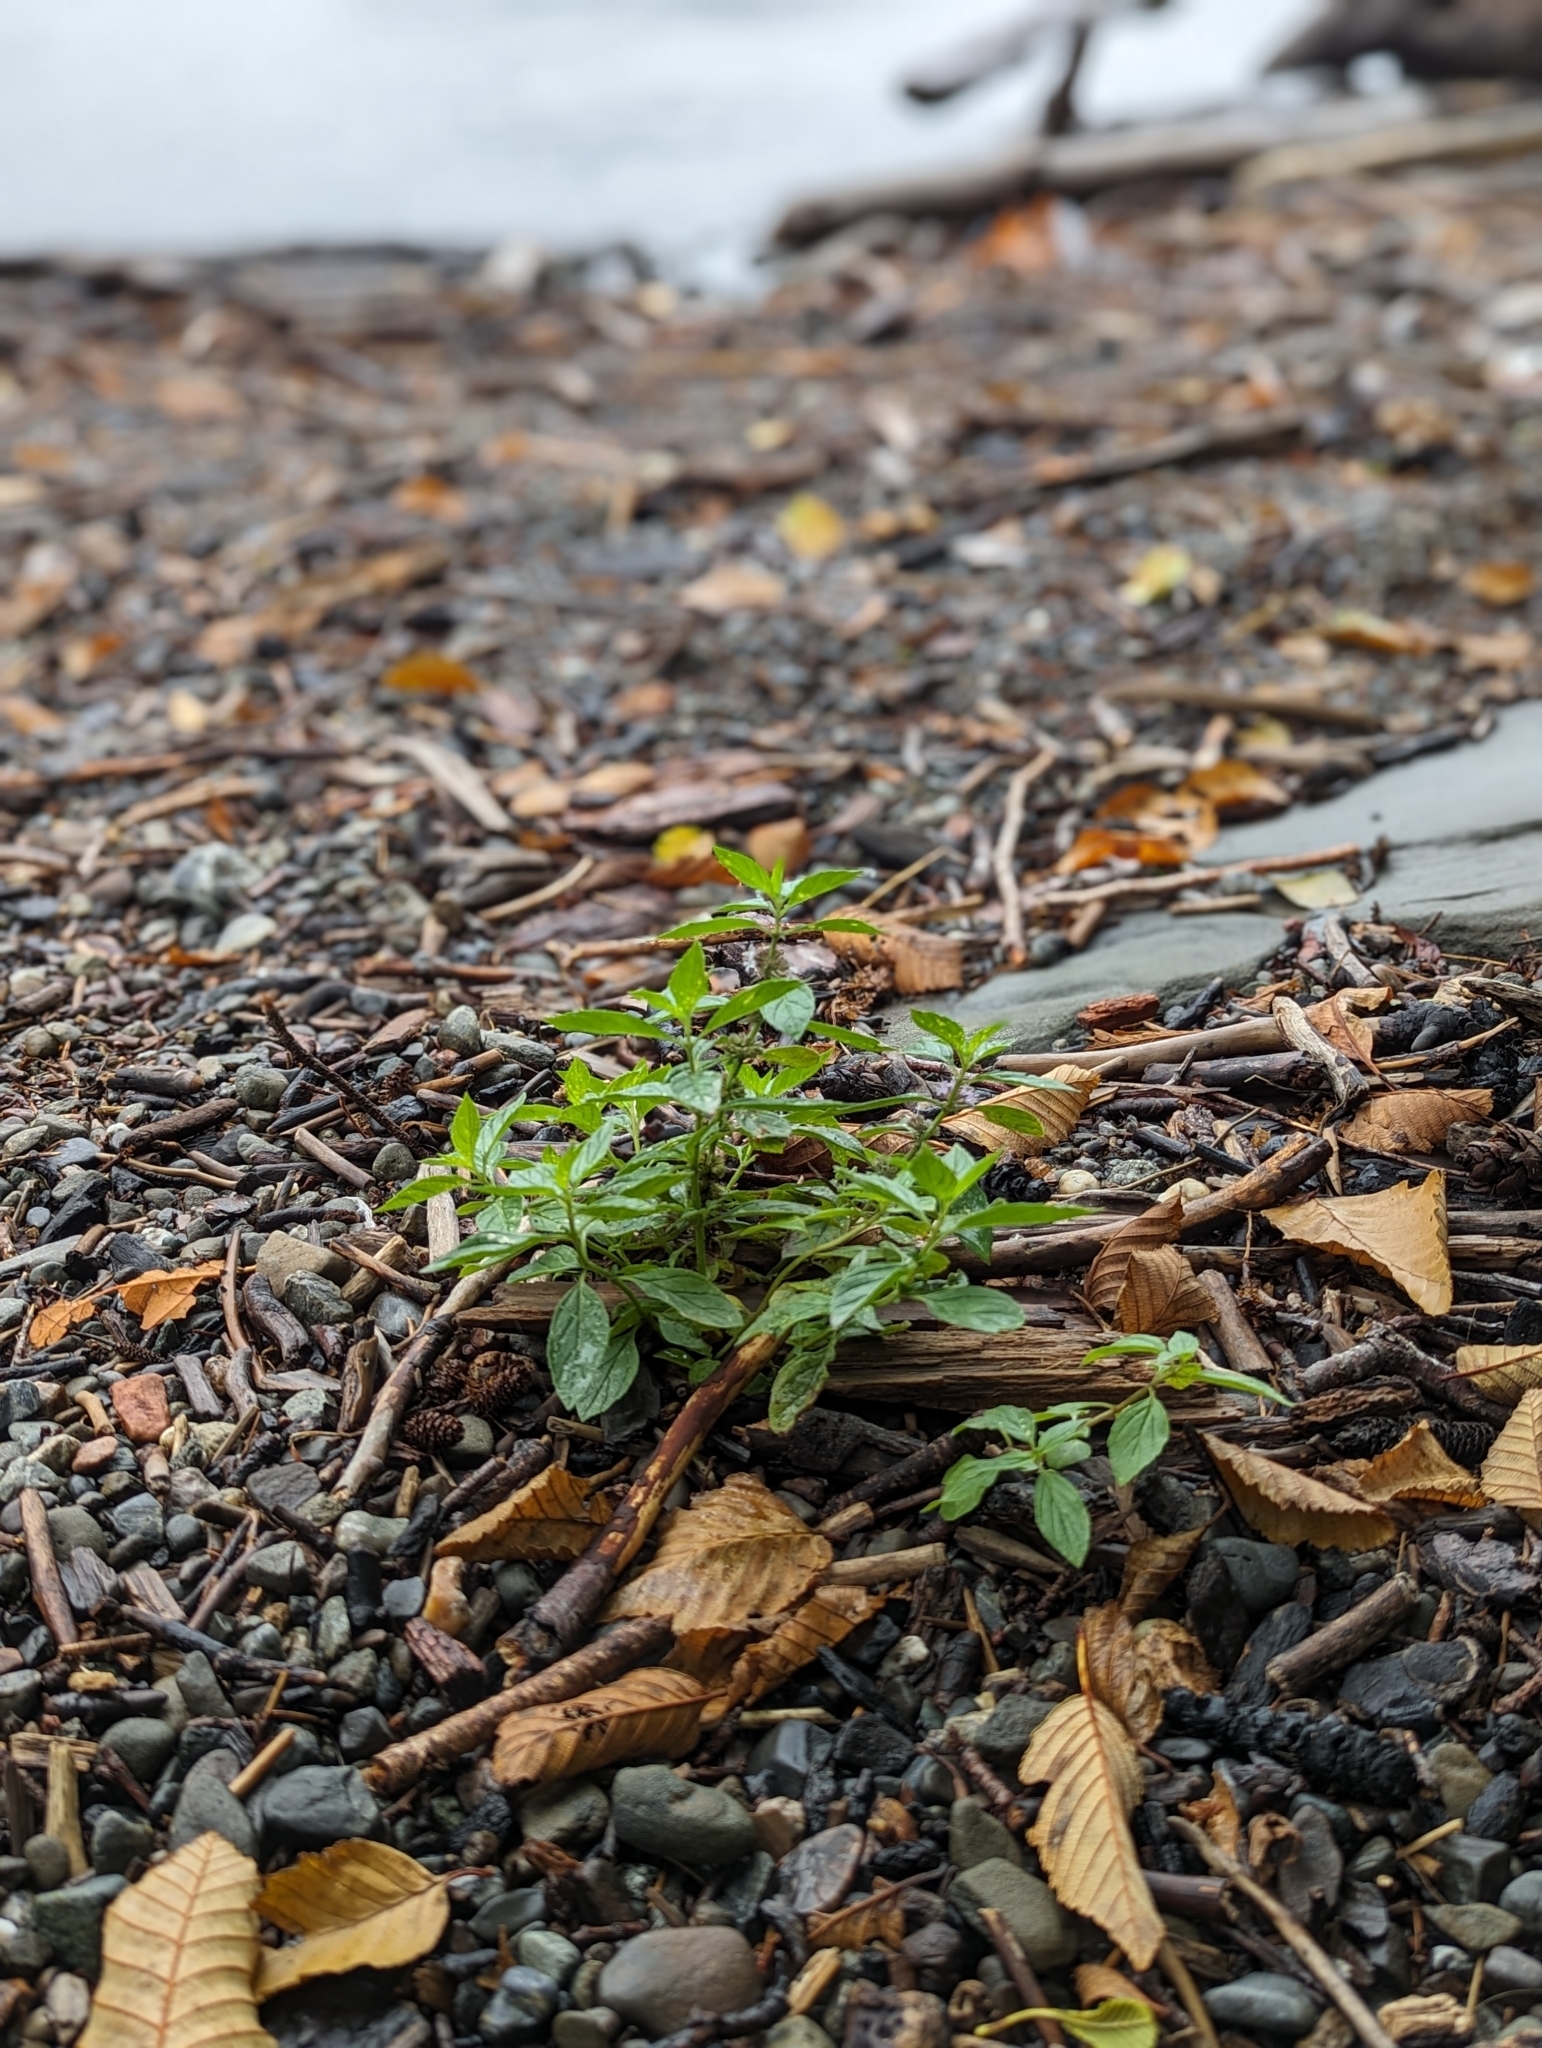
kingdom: Plantae
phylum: Tracheophyta
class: Magnoliopsida
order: Lamiales
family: Lamiaceae
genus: Mentha
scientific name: Mentha canadensis
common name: American corn mint
